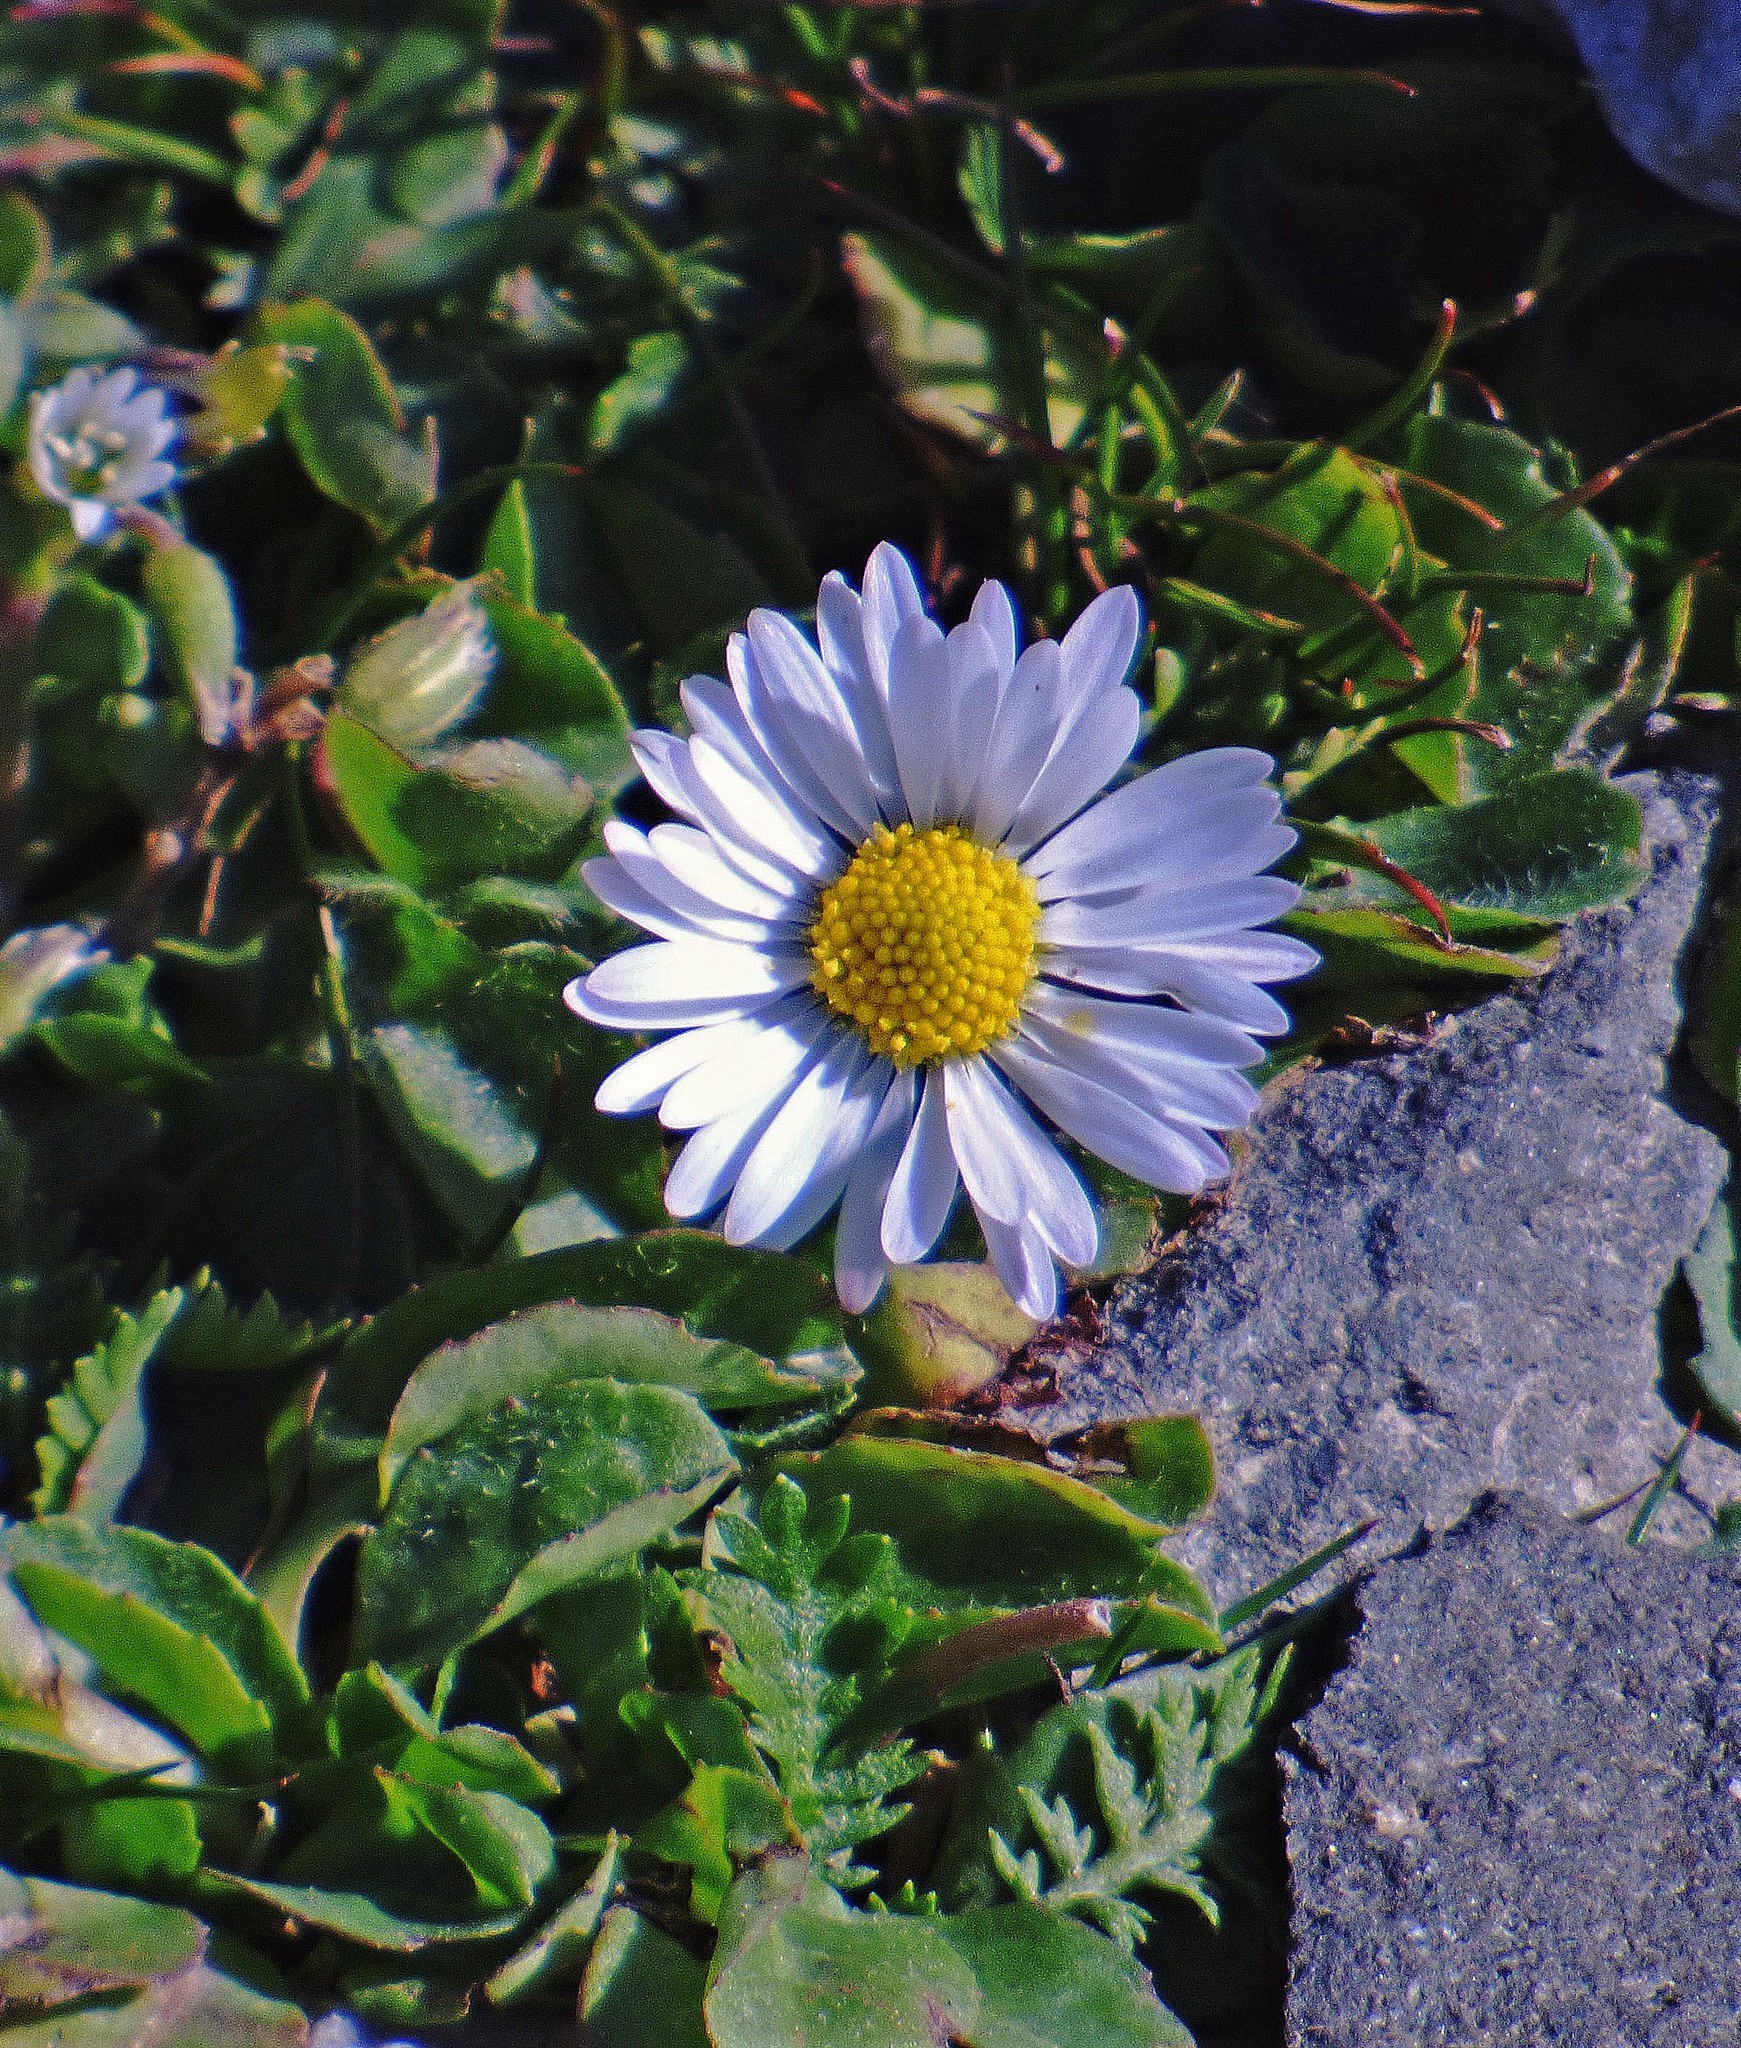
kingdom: Plantae
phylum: Tracheophyta
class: Magnoliopsida
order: Asterales
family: Asteraceae
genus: Bellis
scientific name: Bellis perennis
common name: Lawndaisy
